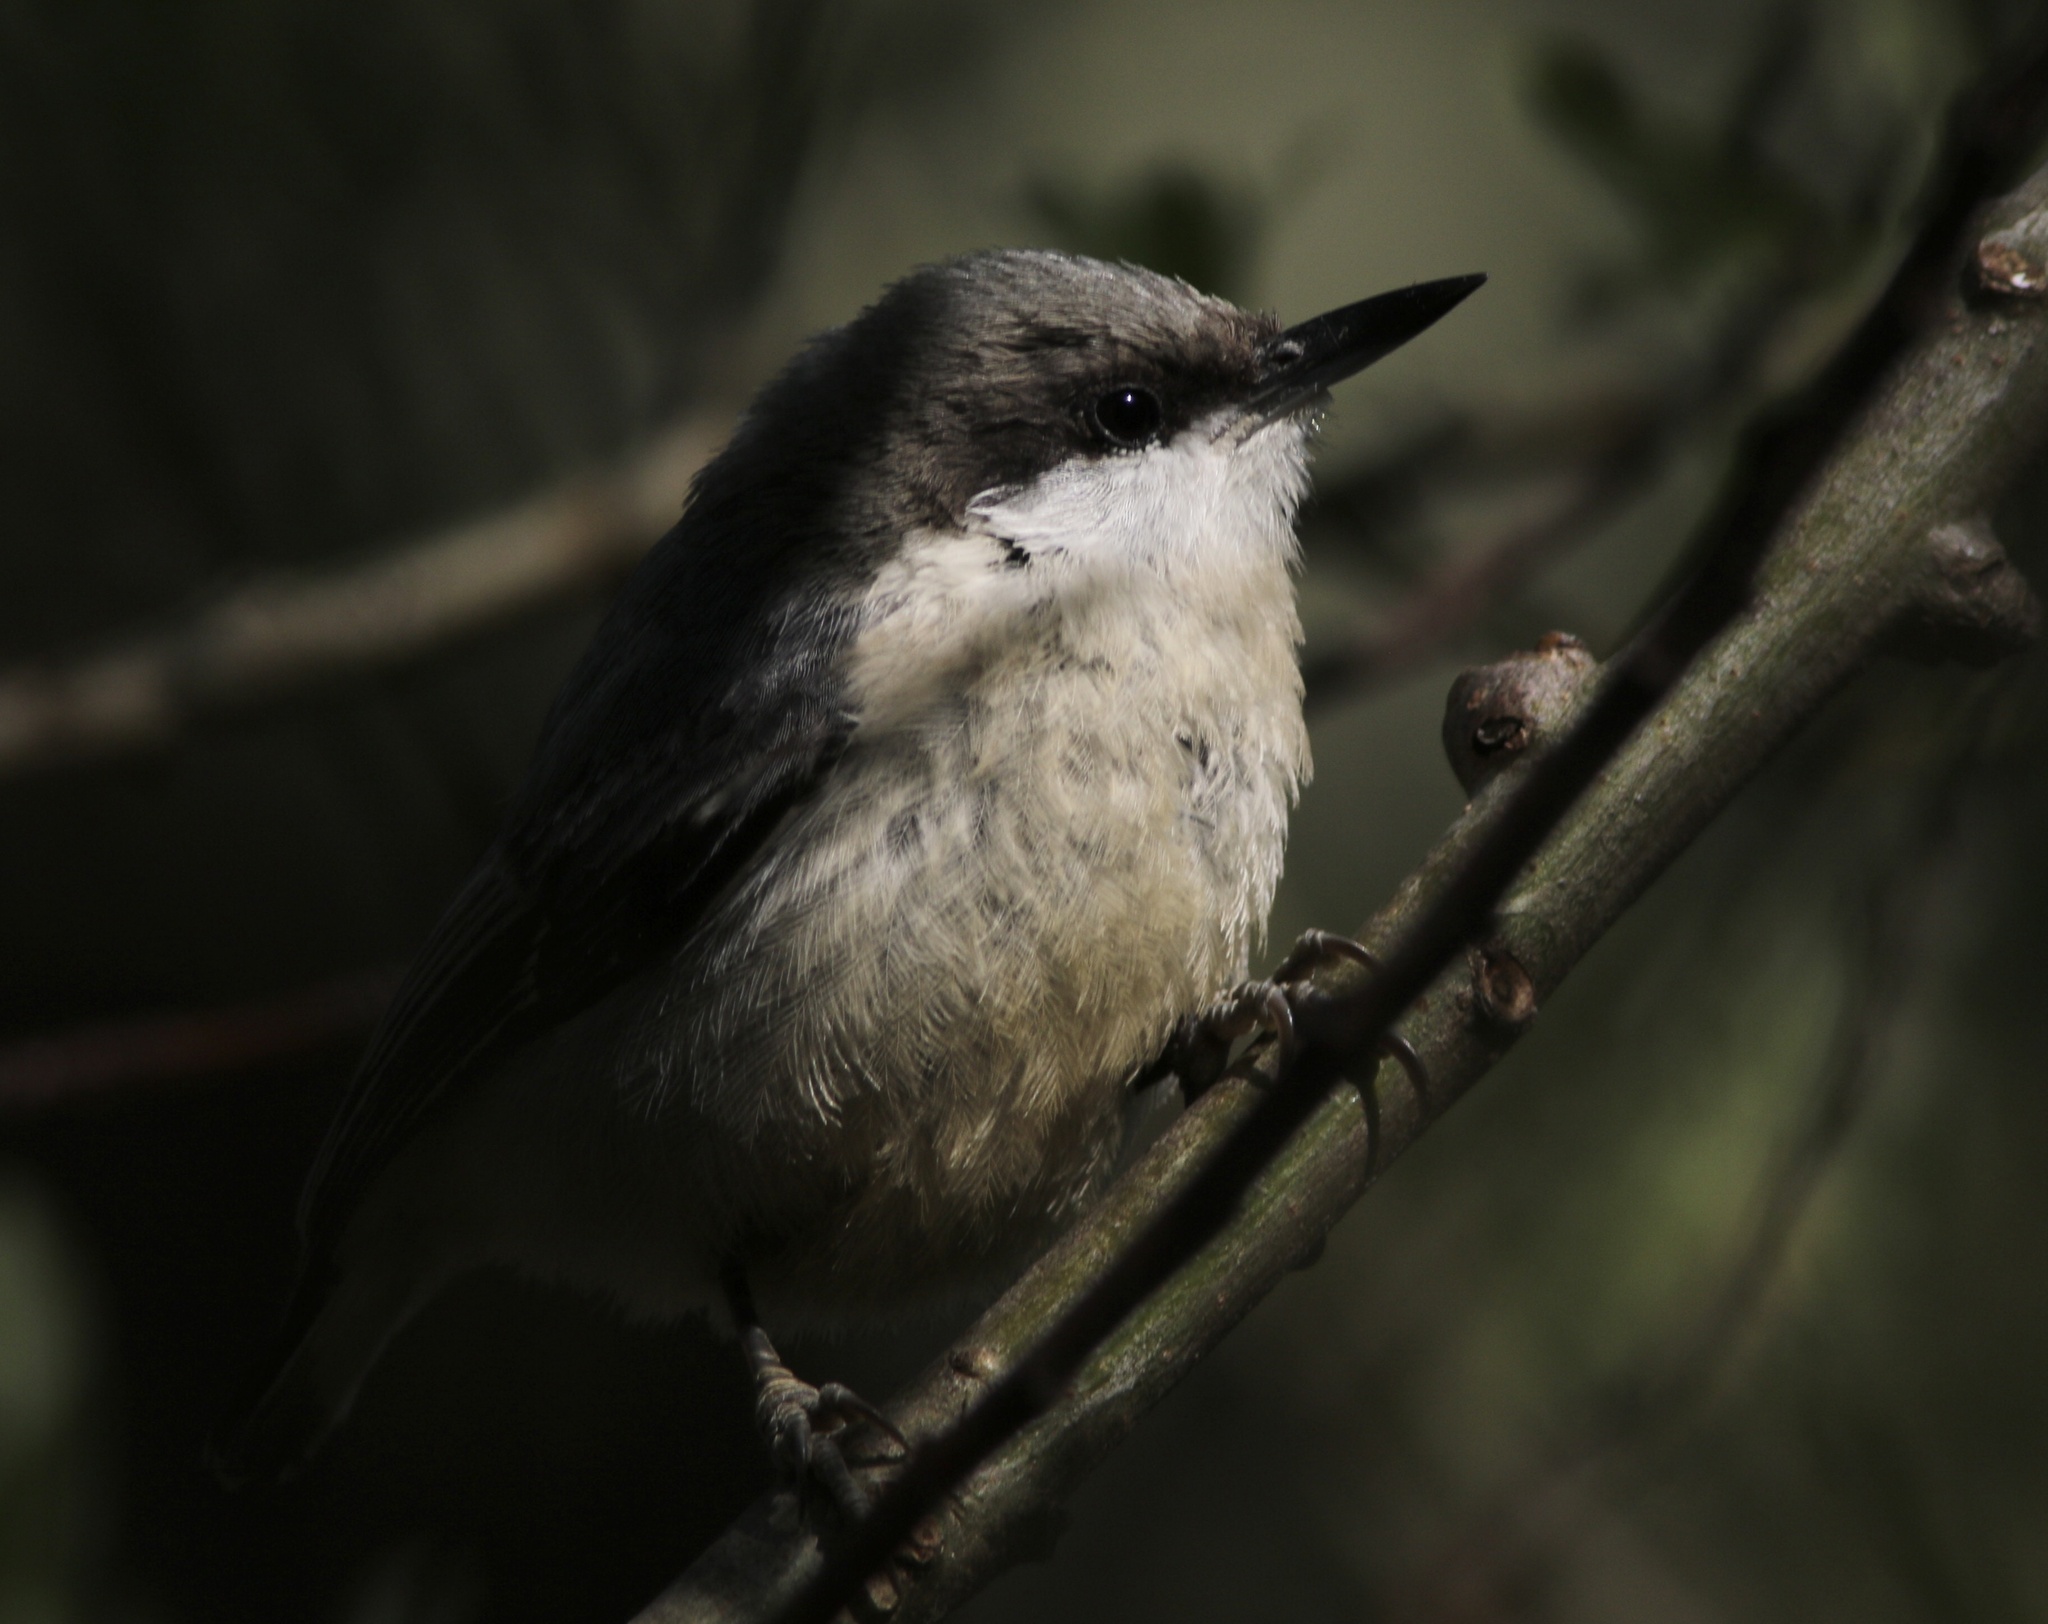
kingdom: Animalia
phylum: Chordata
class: Aves
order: Passeriformes
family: Sittidae
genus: Sitta
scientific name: Sitta pygmaea
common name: Pygmy nuthatch
